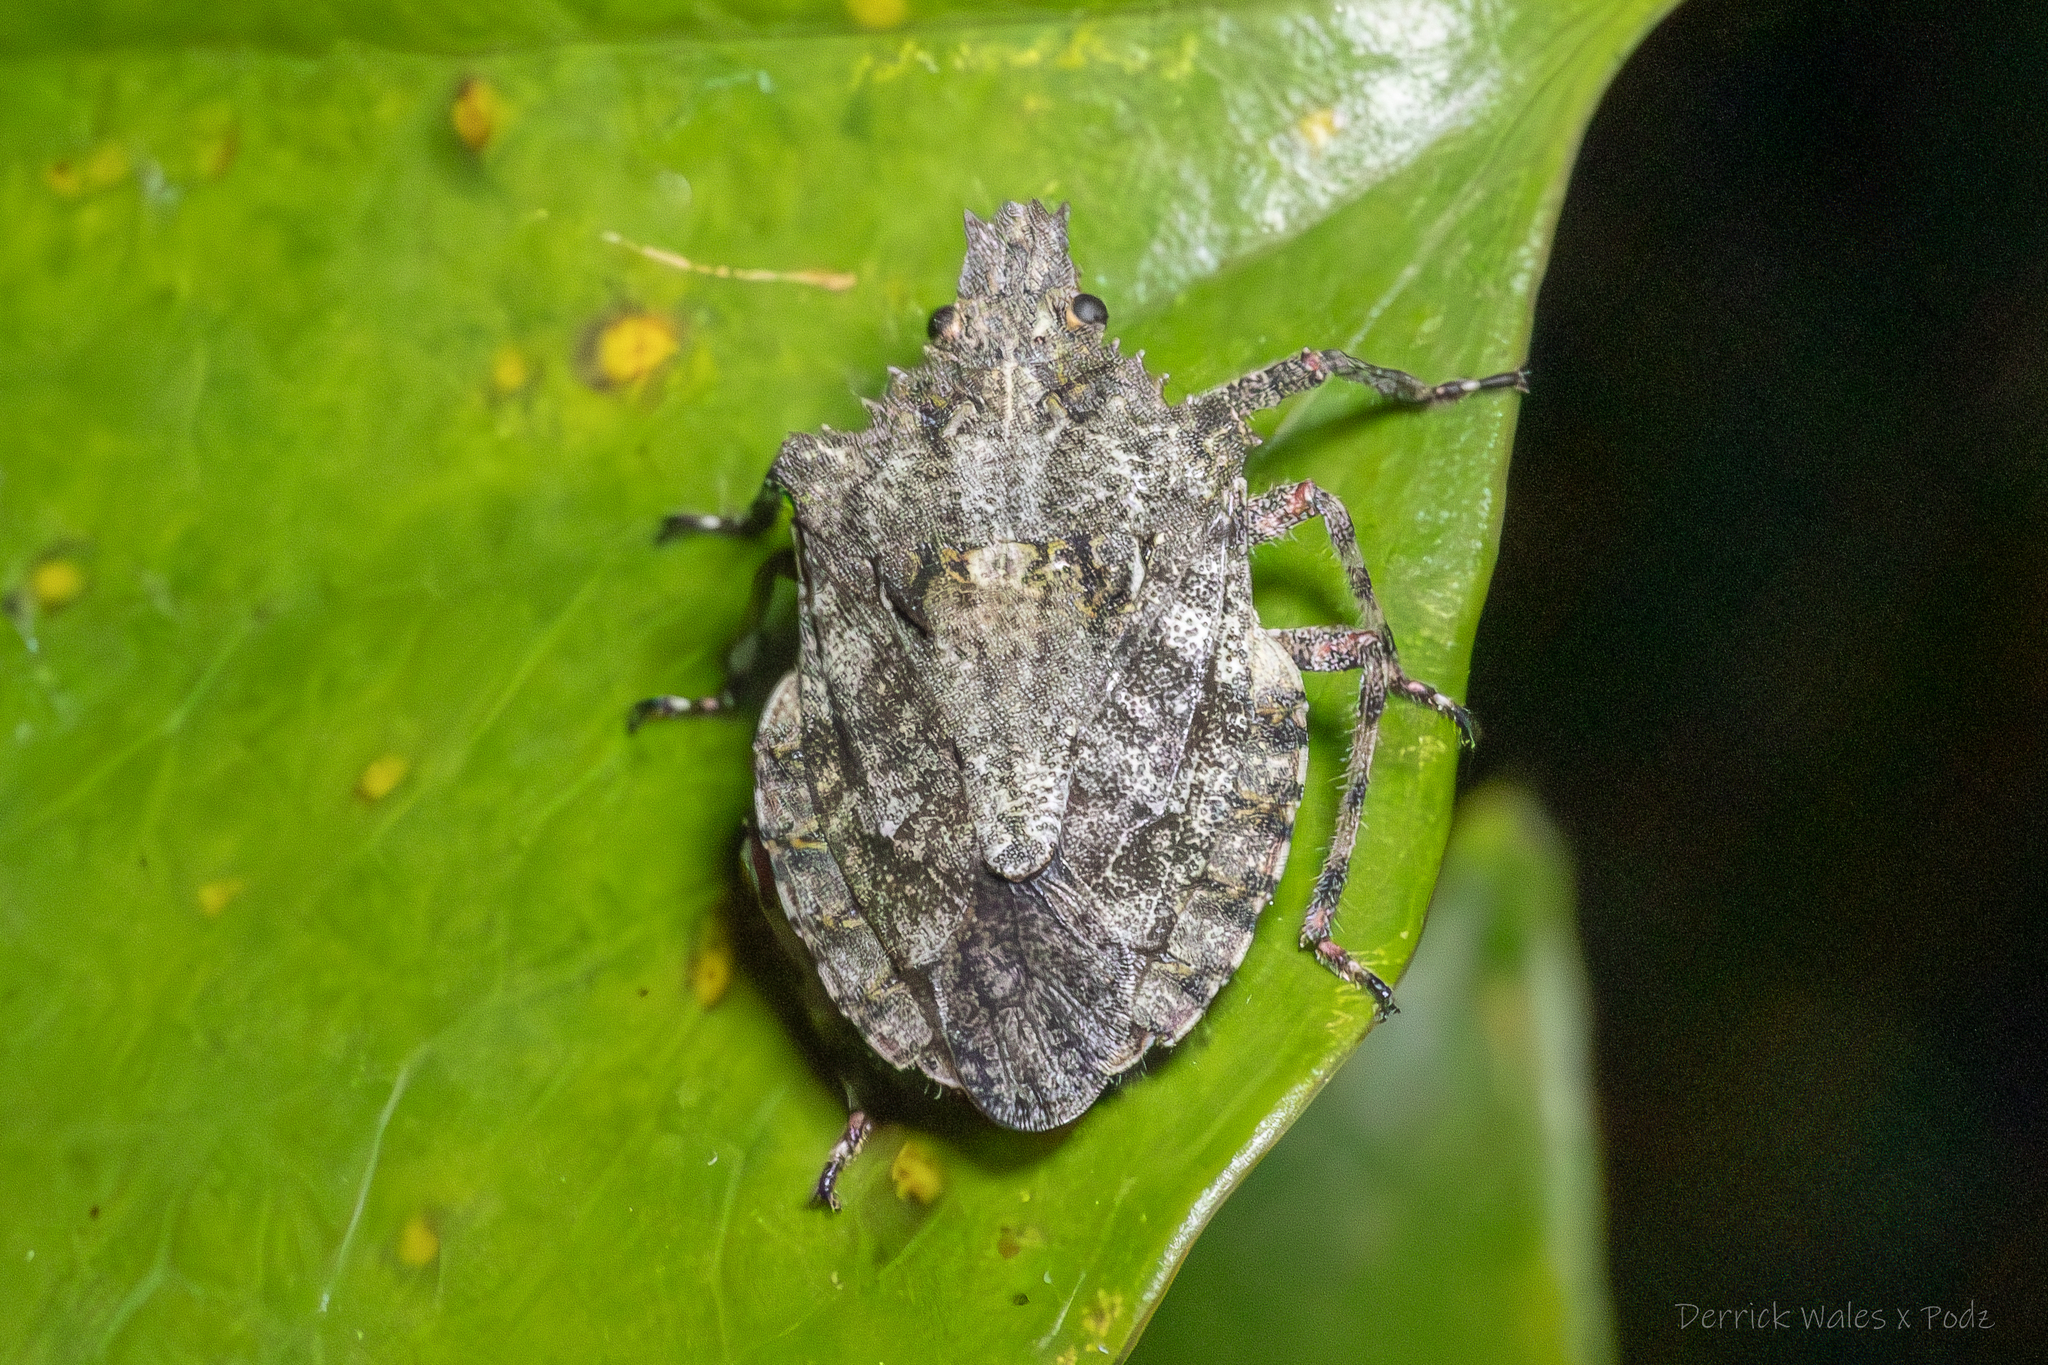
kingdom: Animalia
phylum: Arthropoda
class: Insecta
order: Hemiptera
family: Pentatomidae
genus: Brochymena
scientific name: Brochymena arborea
